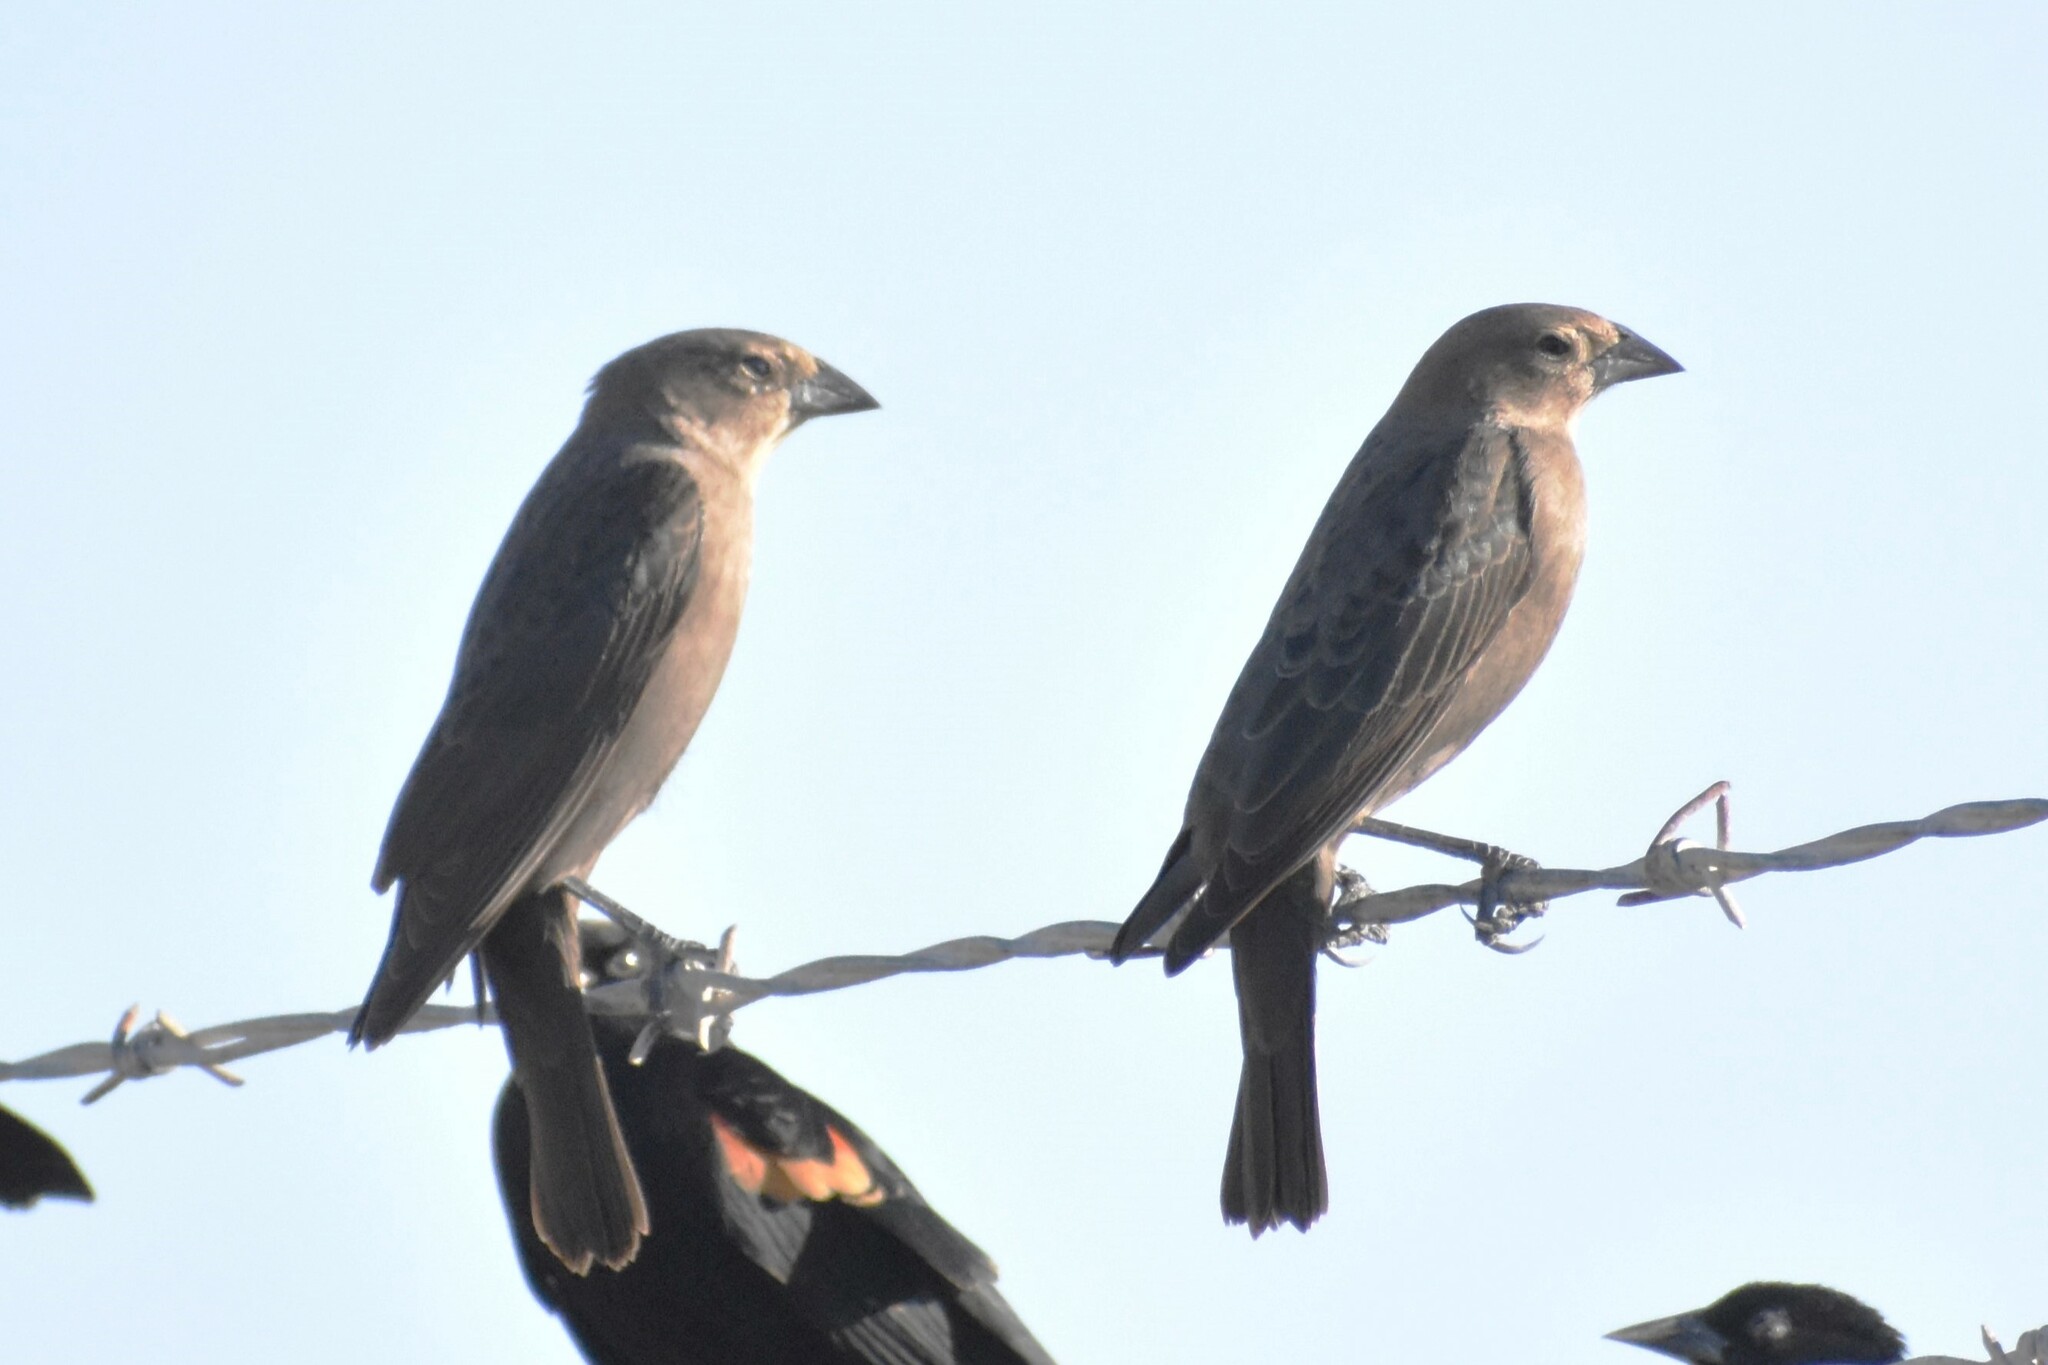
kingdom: Animalia
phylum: Chordata
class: Aves
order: Passeriformes
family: Icteridae
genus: Molothrus
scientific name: Molothrus aeneus
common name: Bronzed cowbird
